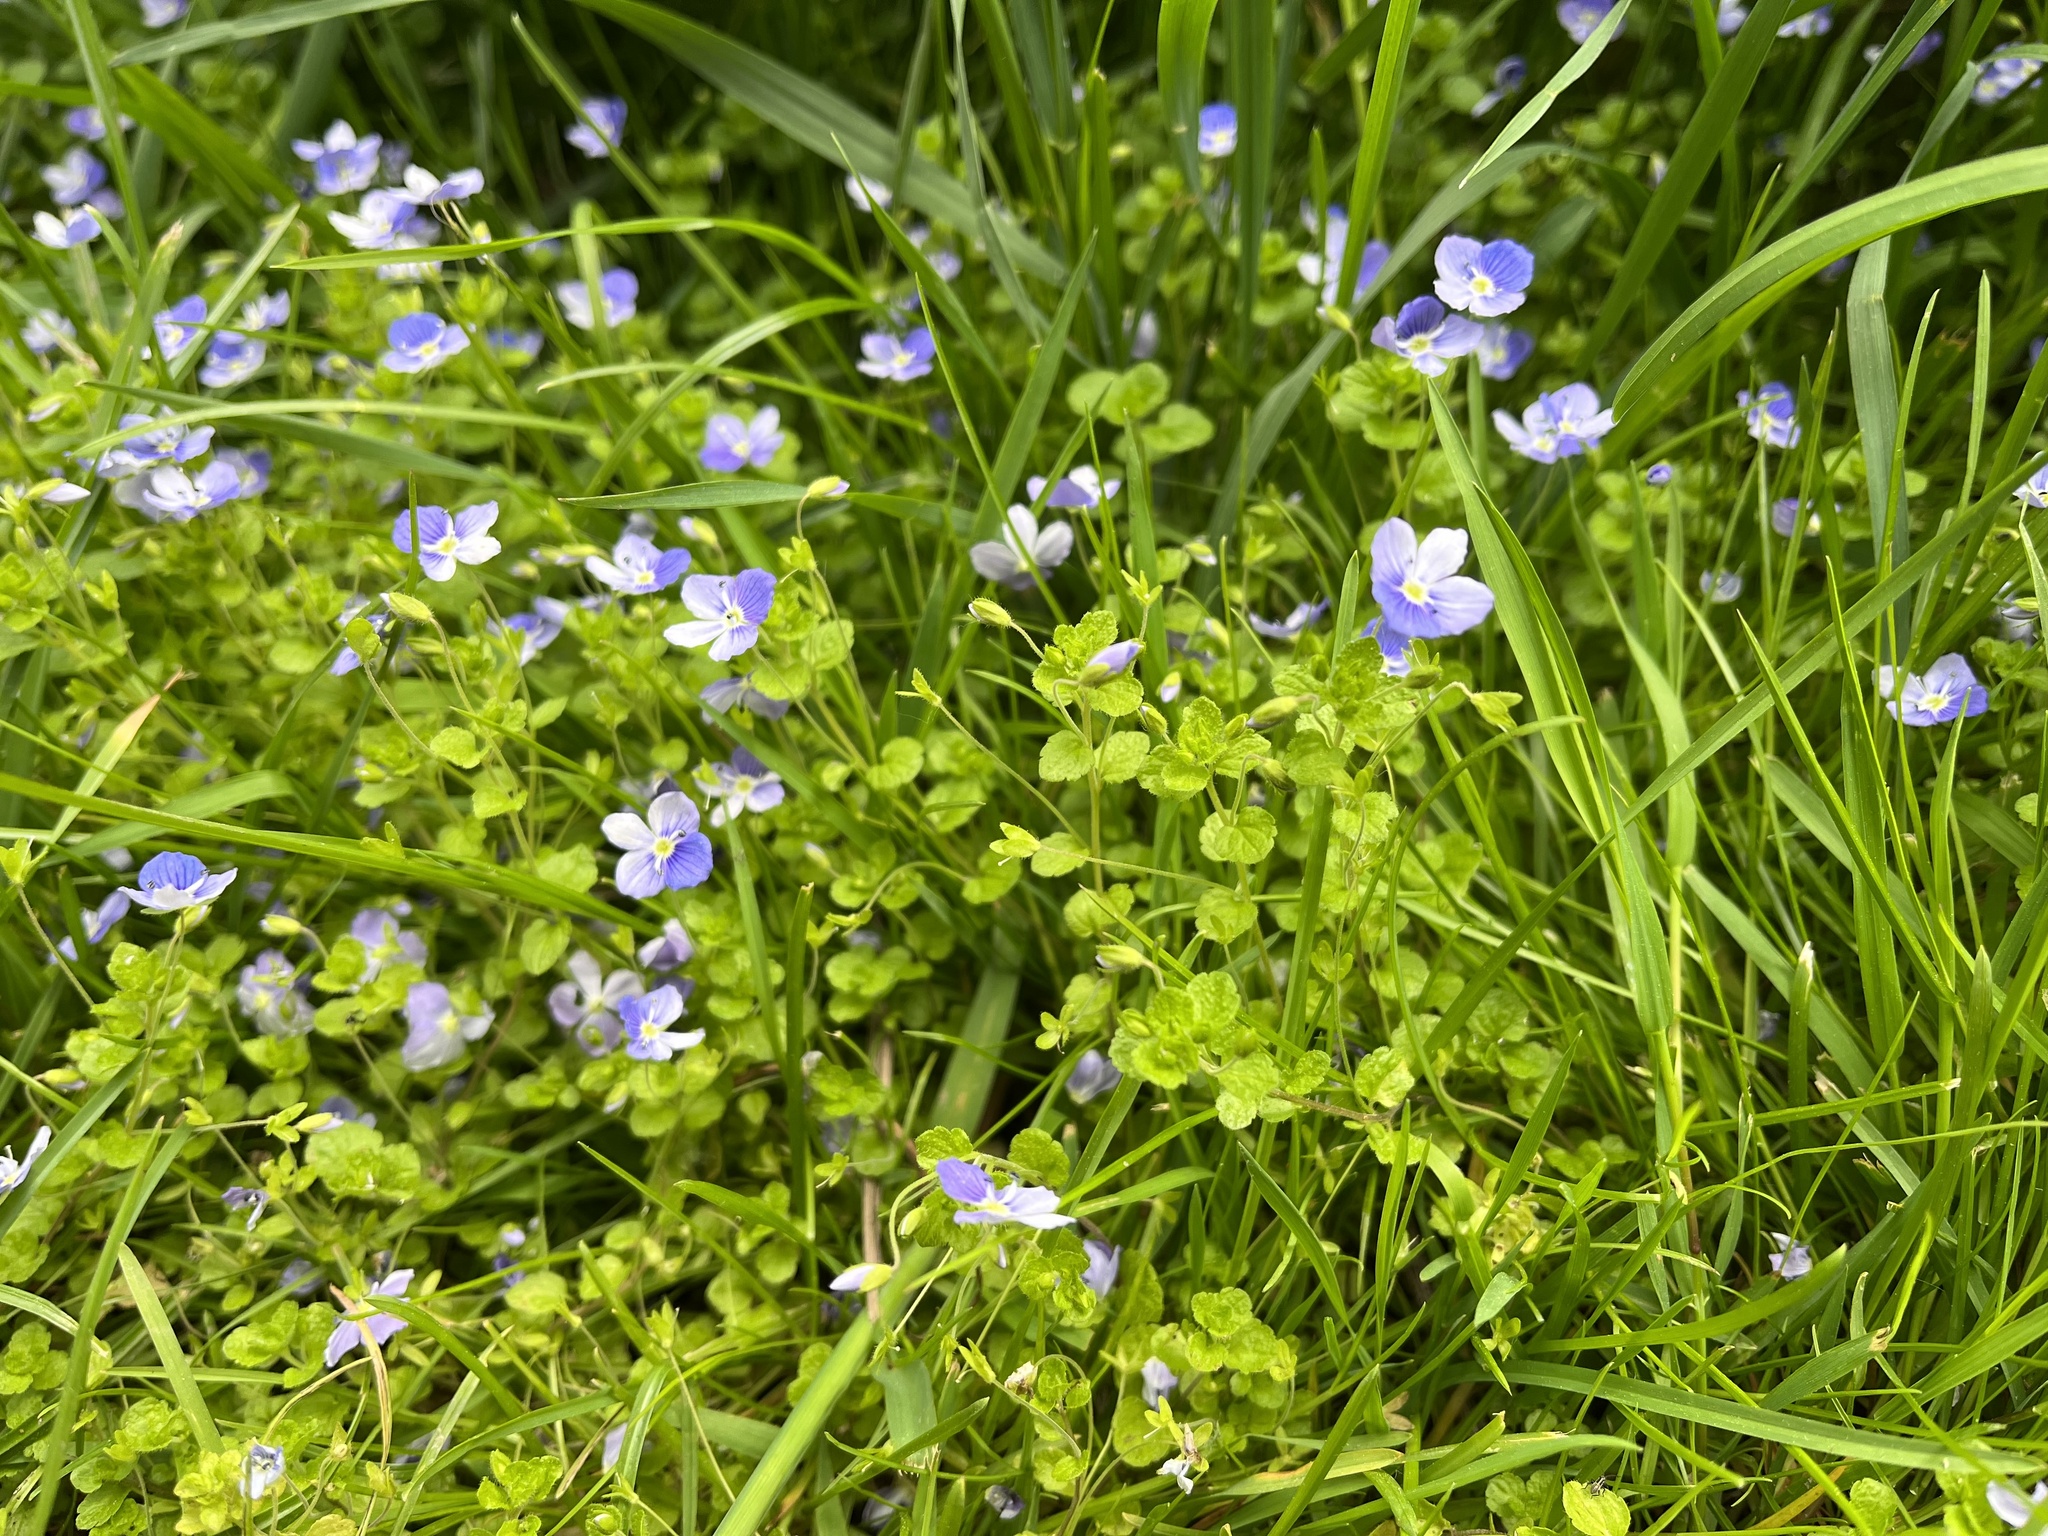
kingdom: Plantae
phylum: Tracheophyta
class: Magnoliopsida
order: Lamiales
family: Plantaginaceae
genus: Veronica
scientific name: Veronica filiformis
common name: Slender speedwell
